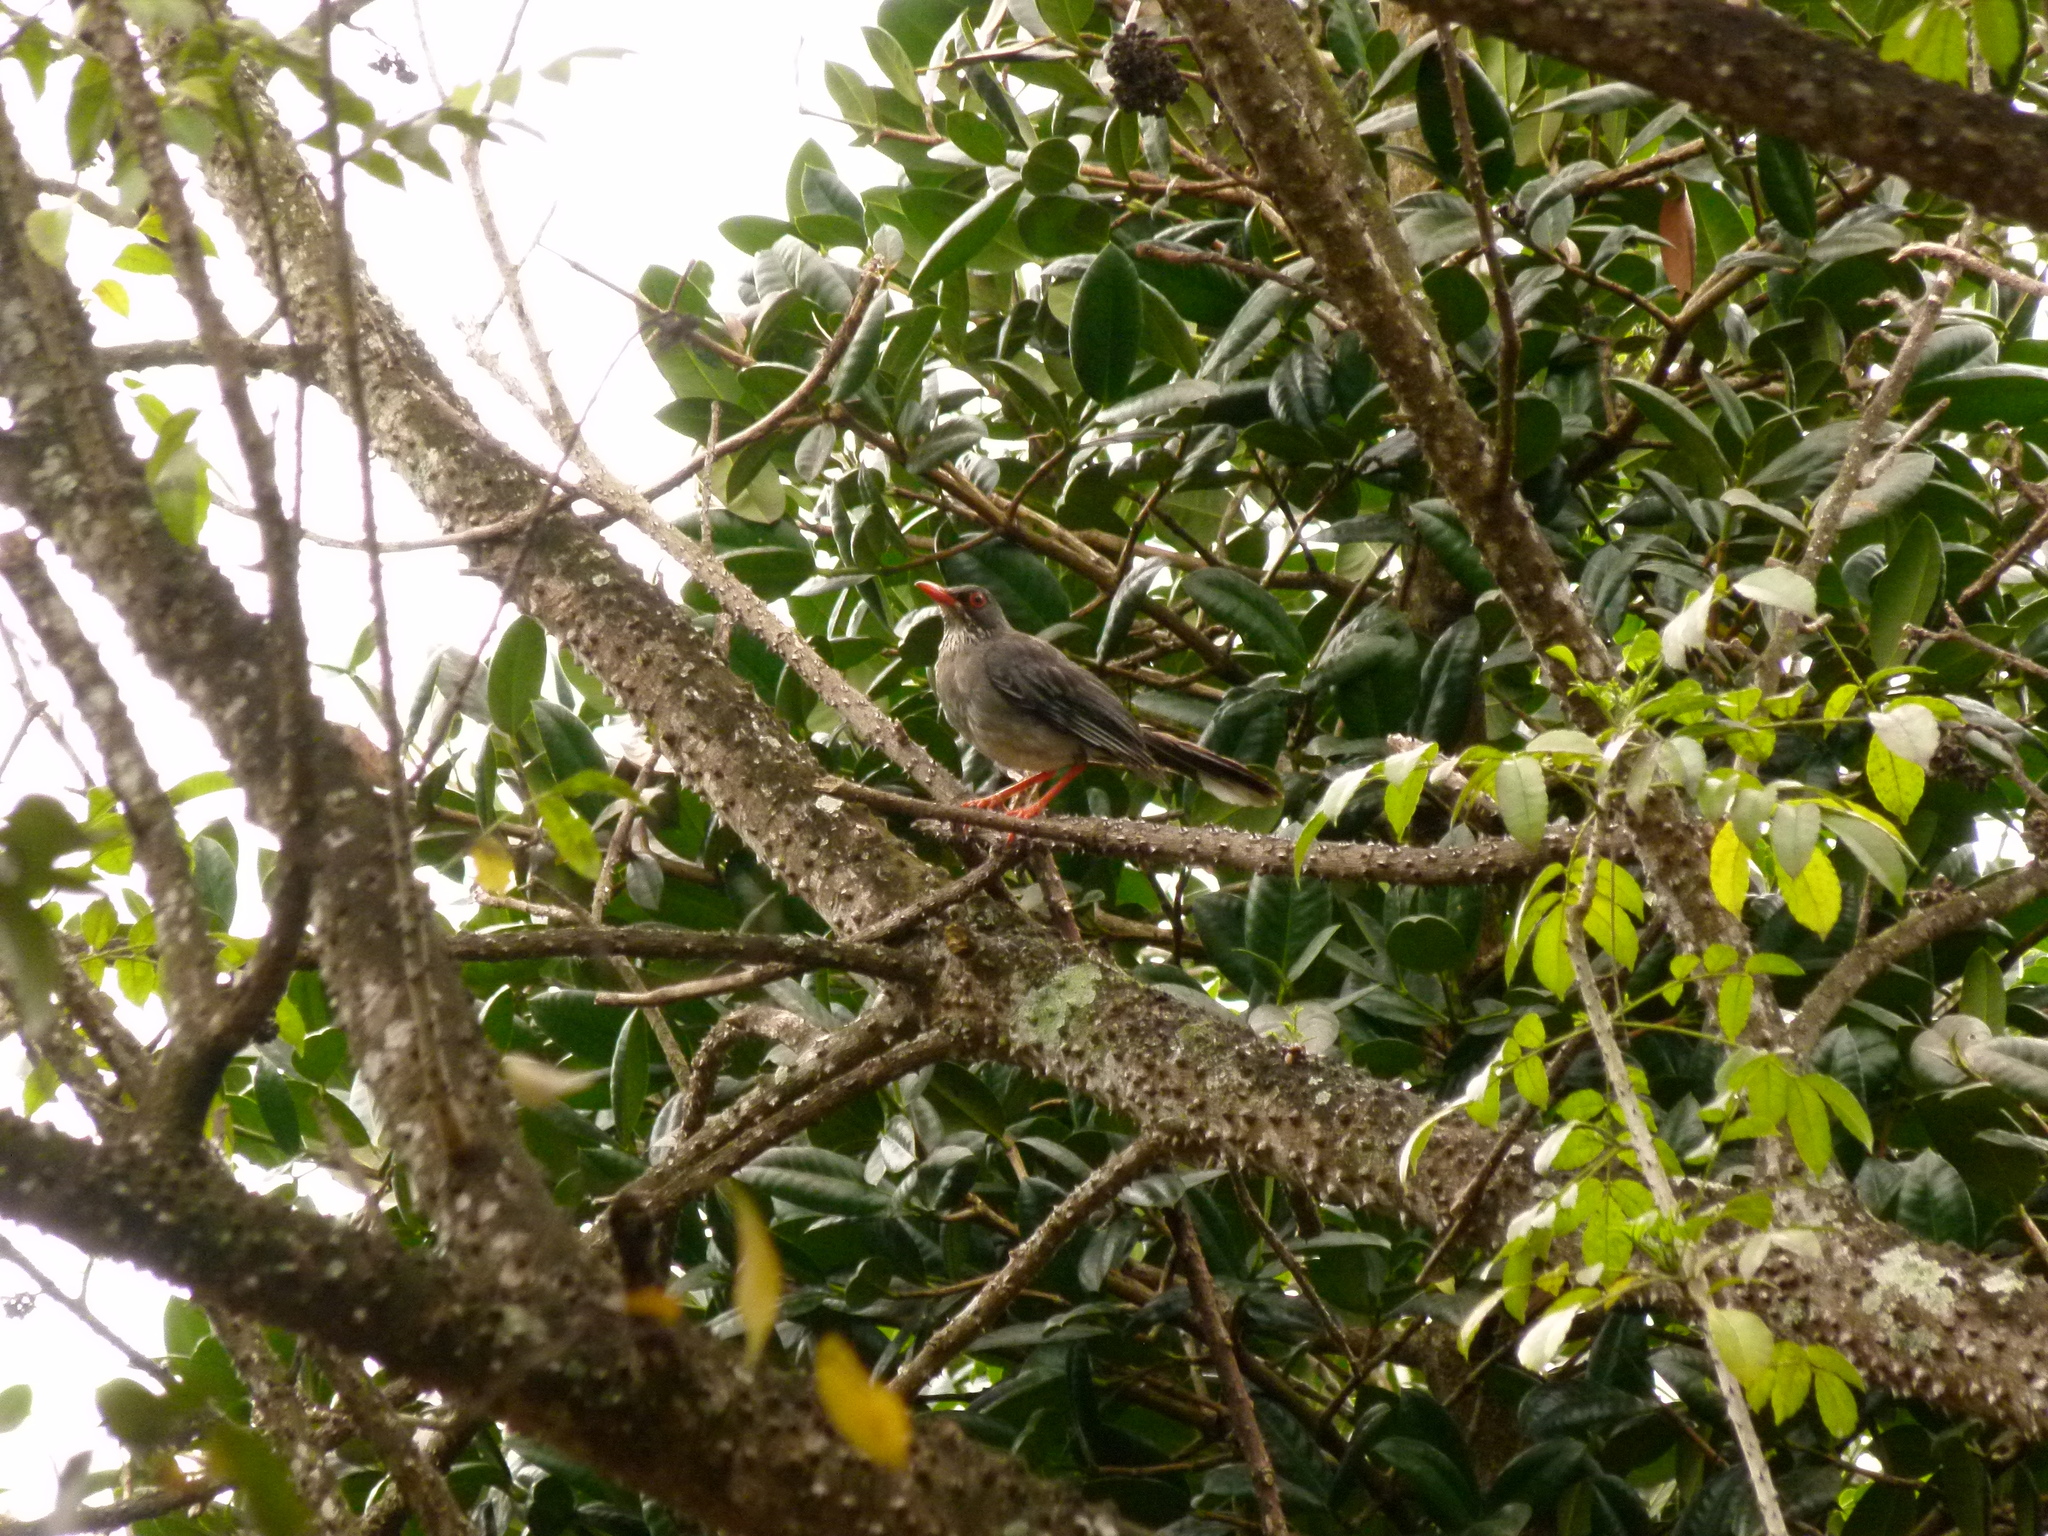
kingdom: Animalia
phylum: Chordata
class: Aves
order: Passeriformes
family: Turdidae
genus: Turdus
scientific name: Turdus plumbeus
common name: Red-legged thrush
